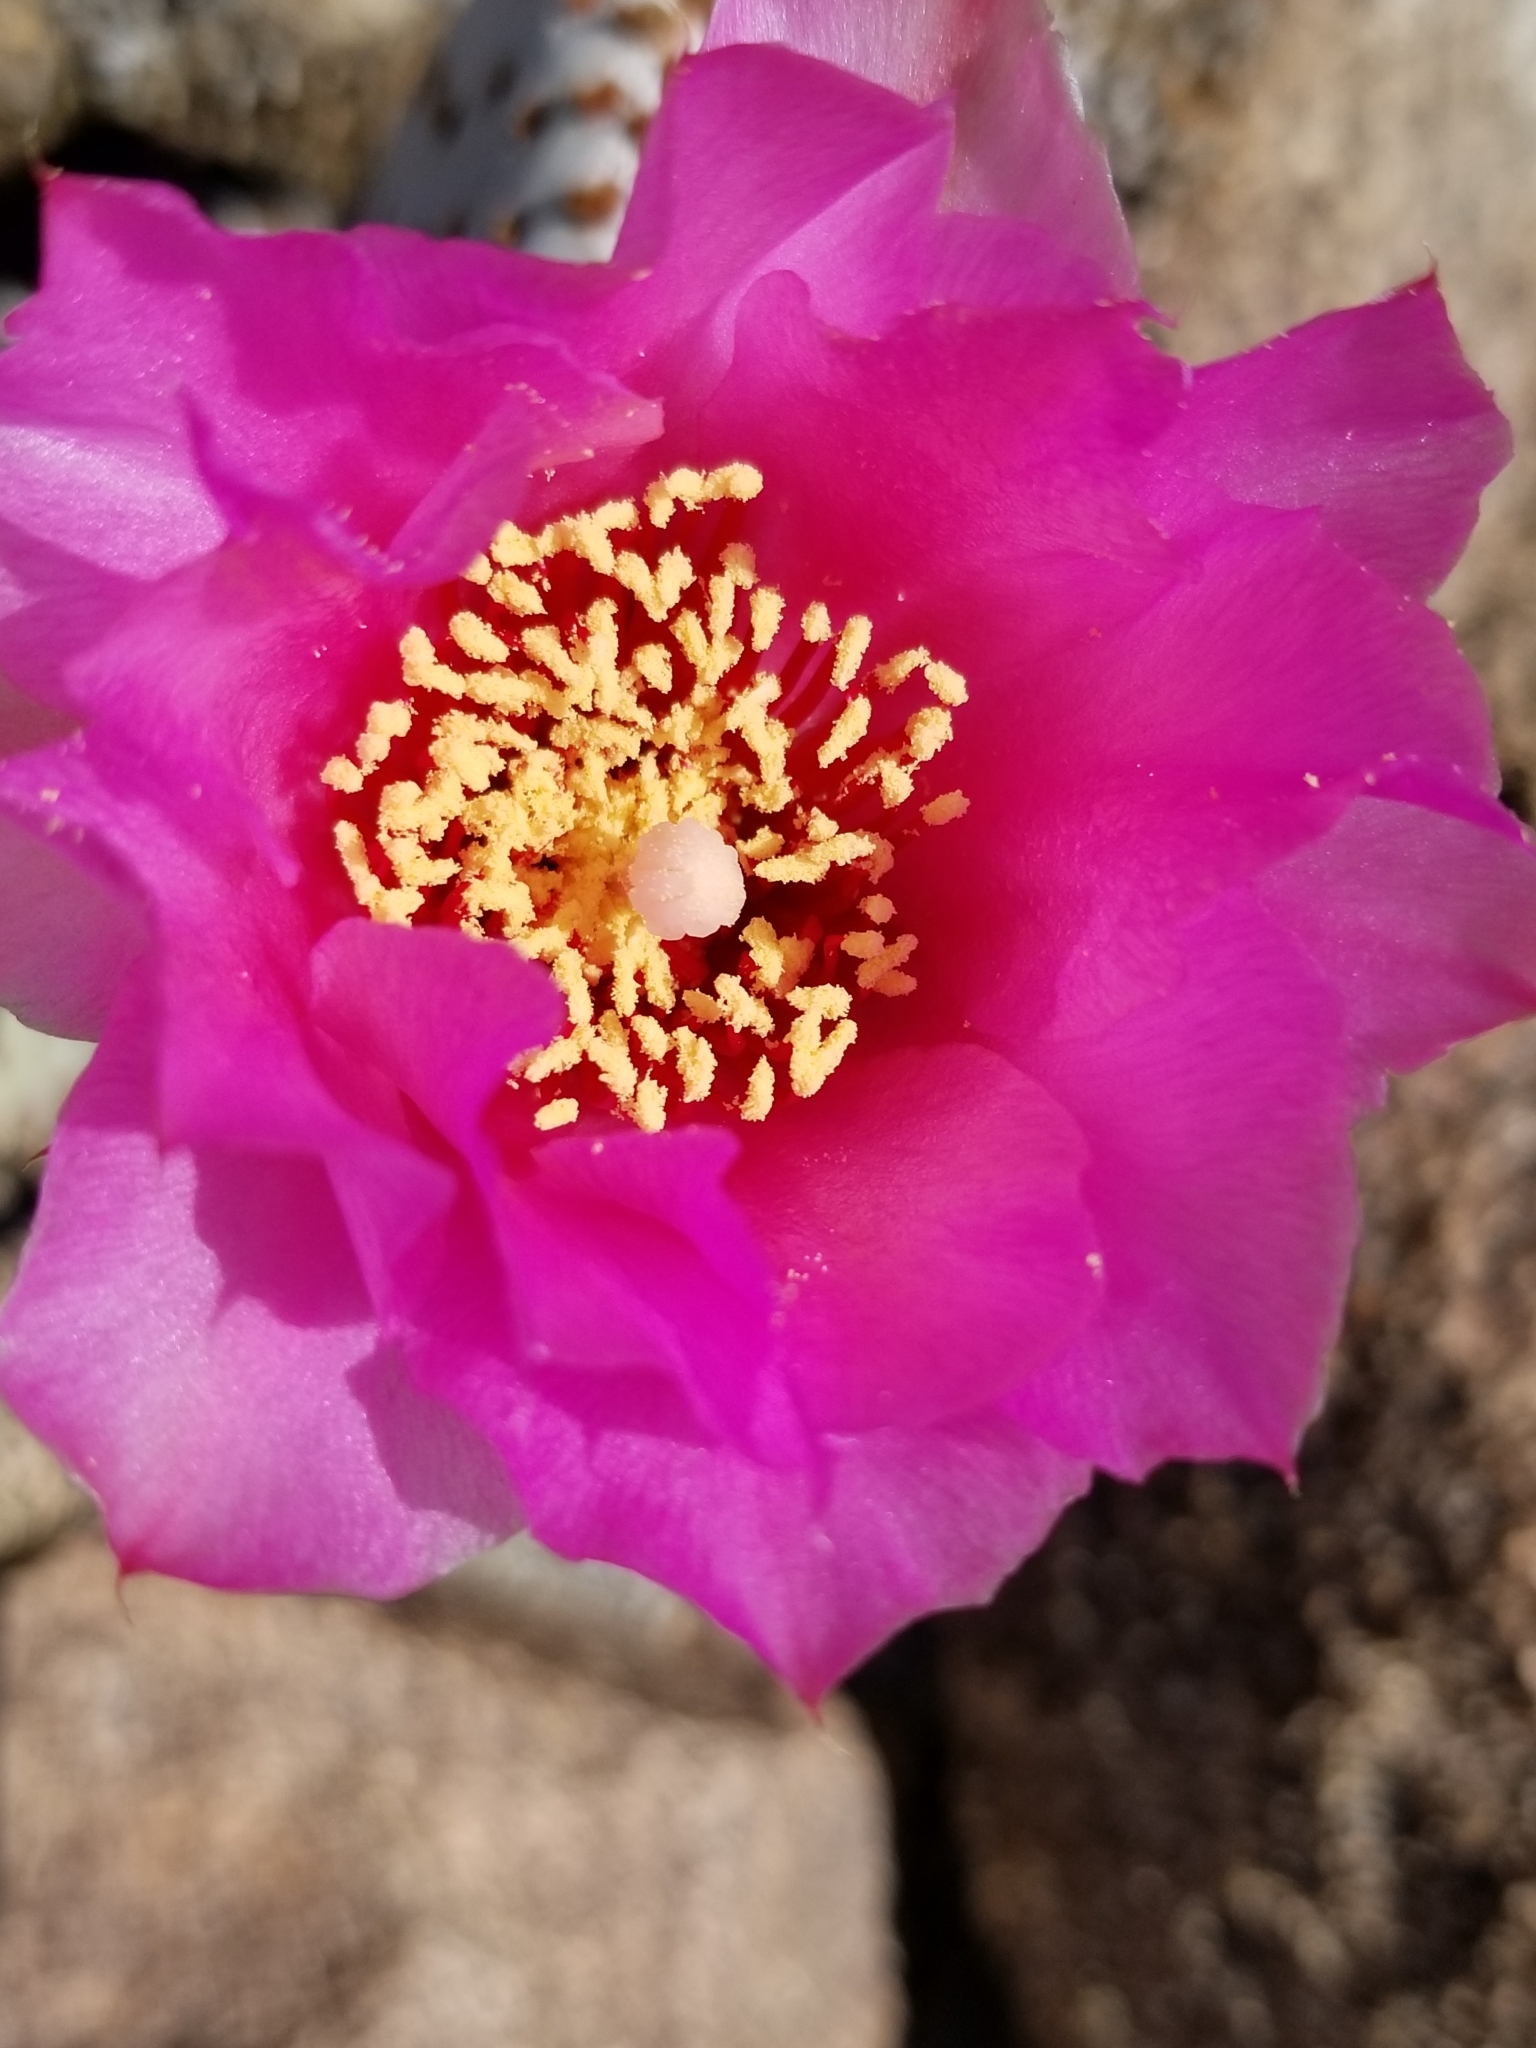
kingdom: Plantae
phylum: Tracheophyta
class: Magnoliopsida
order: Caryophyllales
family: Cactaceae
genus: Opuntia
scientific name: Opuntia basilaris
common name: Beavertail prickly-pear
